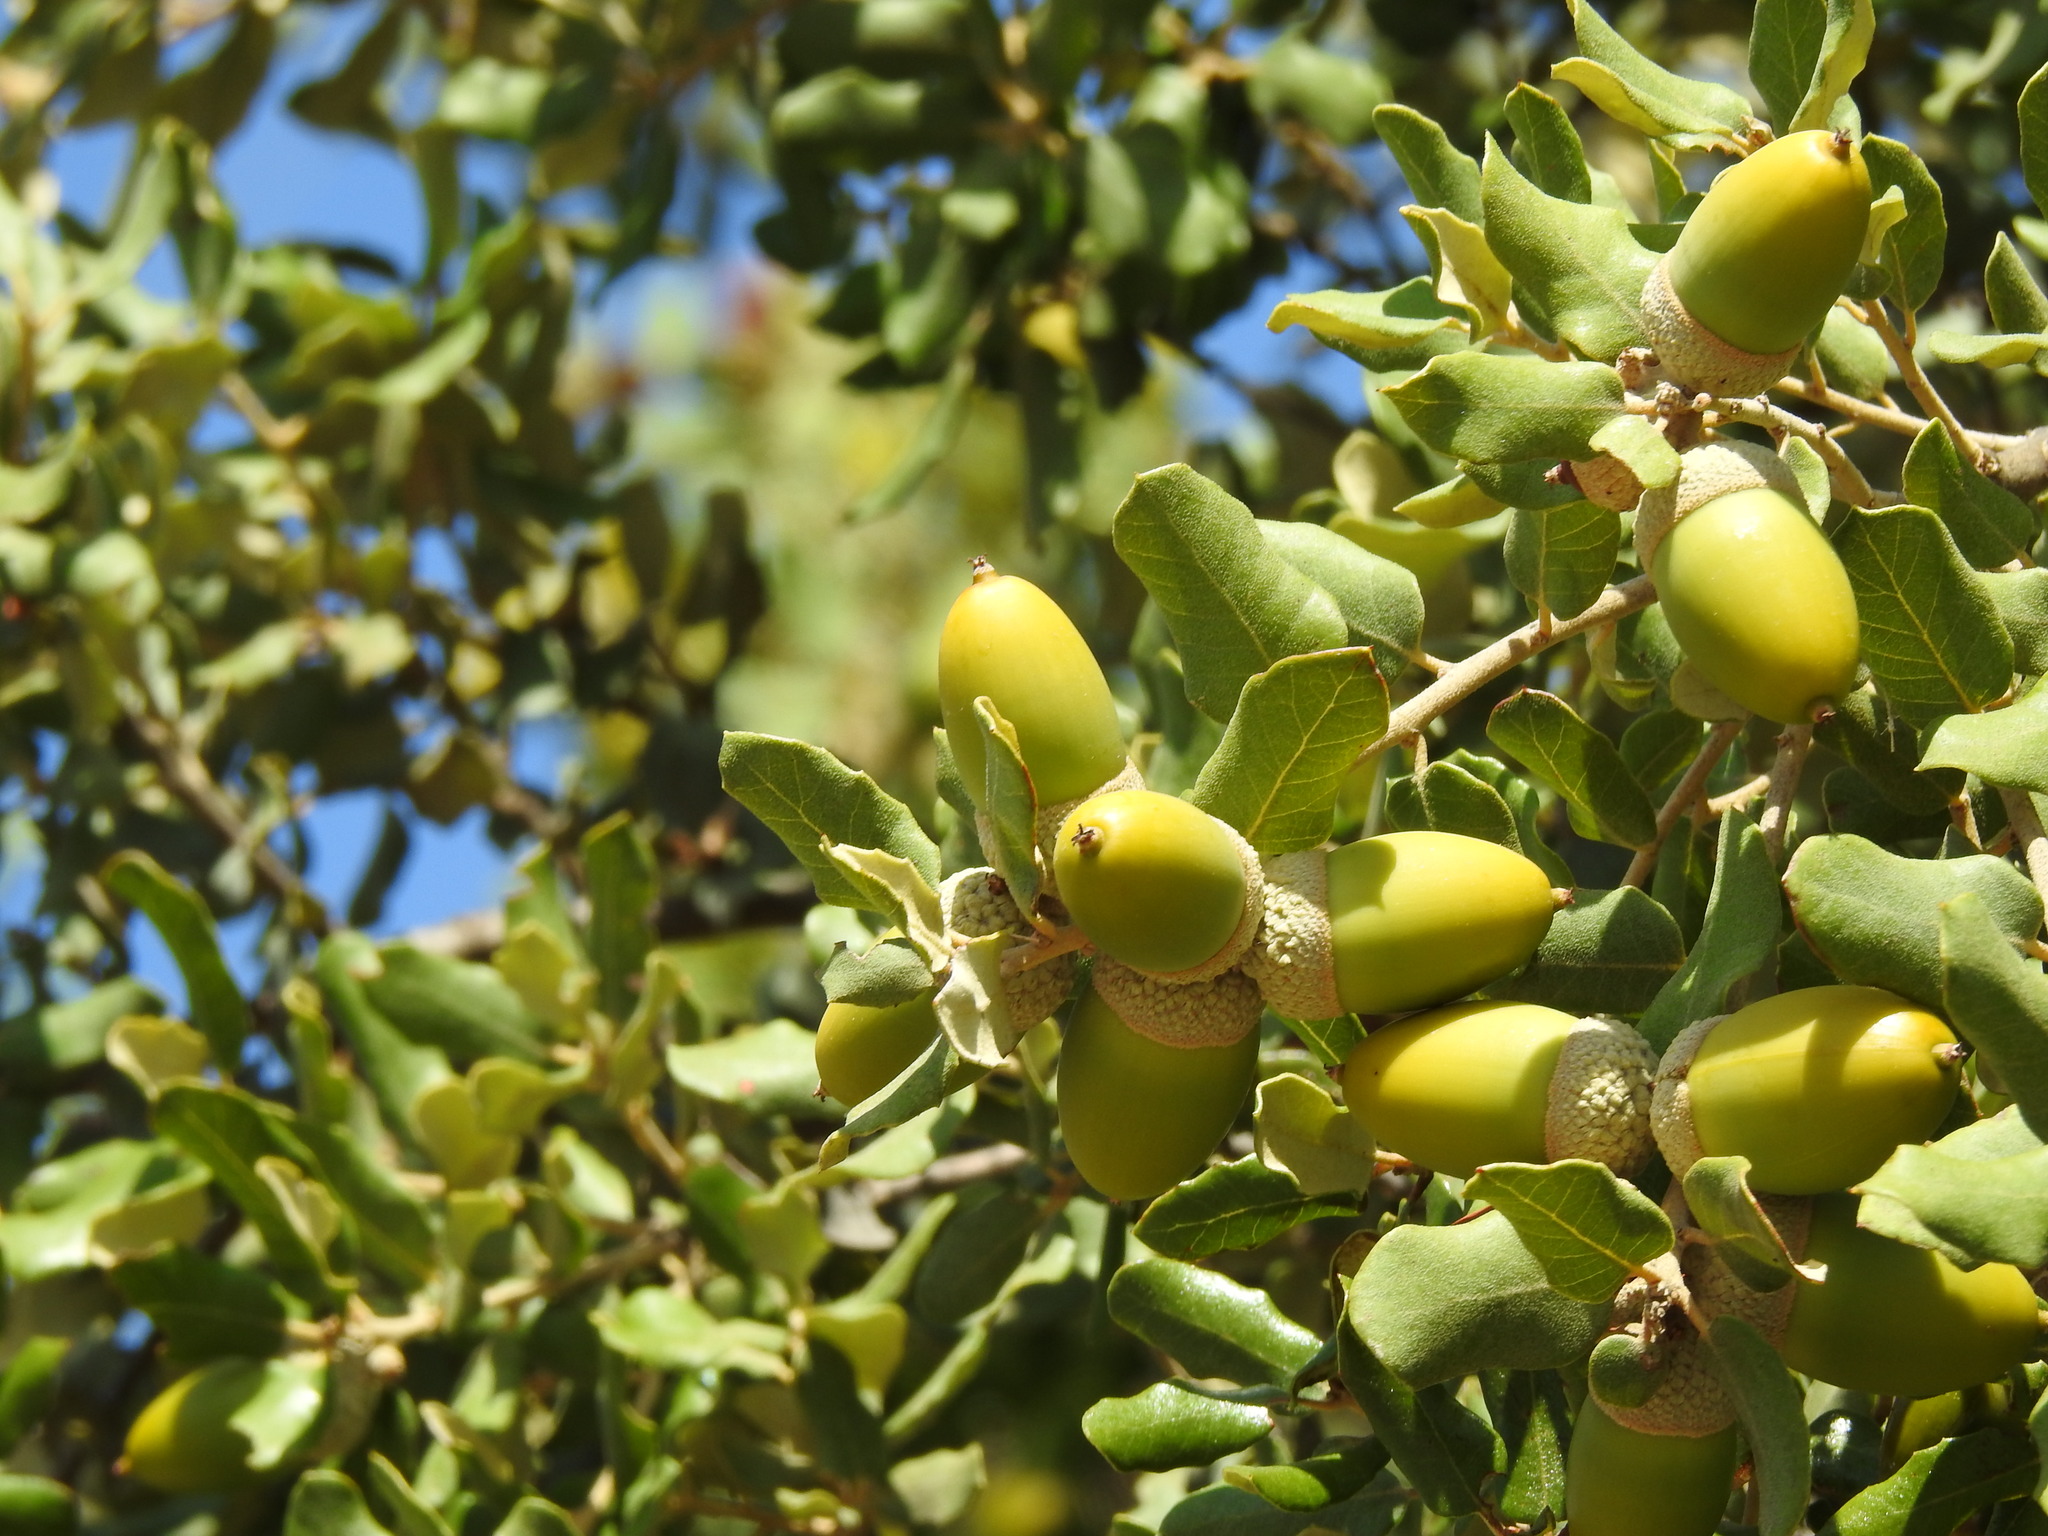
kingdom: Plantae
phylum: Tracheophyta
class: Magnoliopsida
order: Fagales
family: Fagaceae
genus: Quercus
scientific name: Quercus rotundifolia
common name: Holm oak
